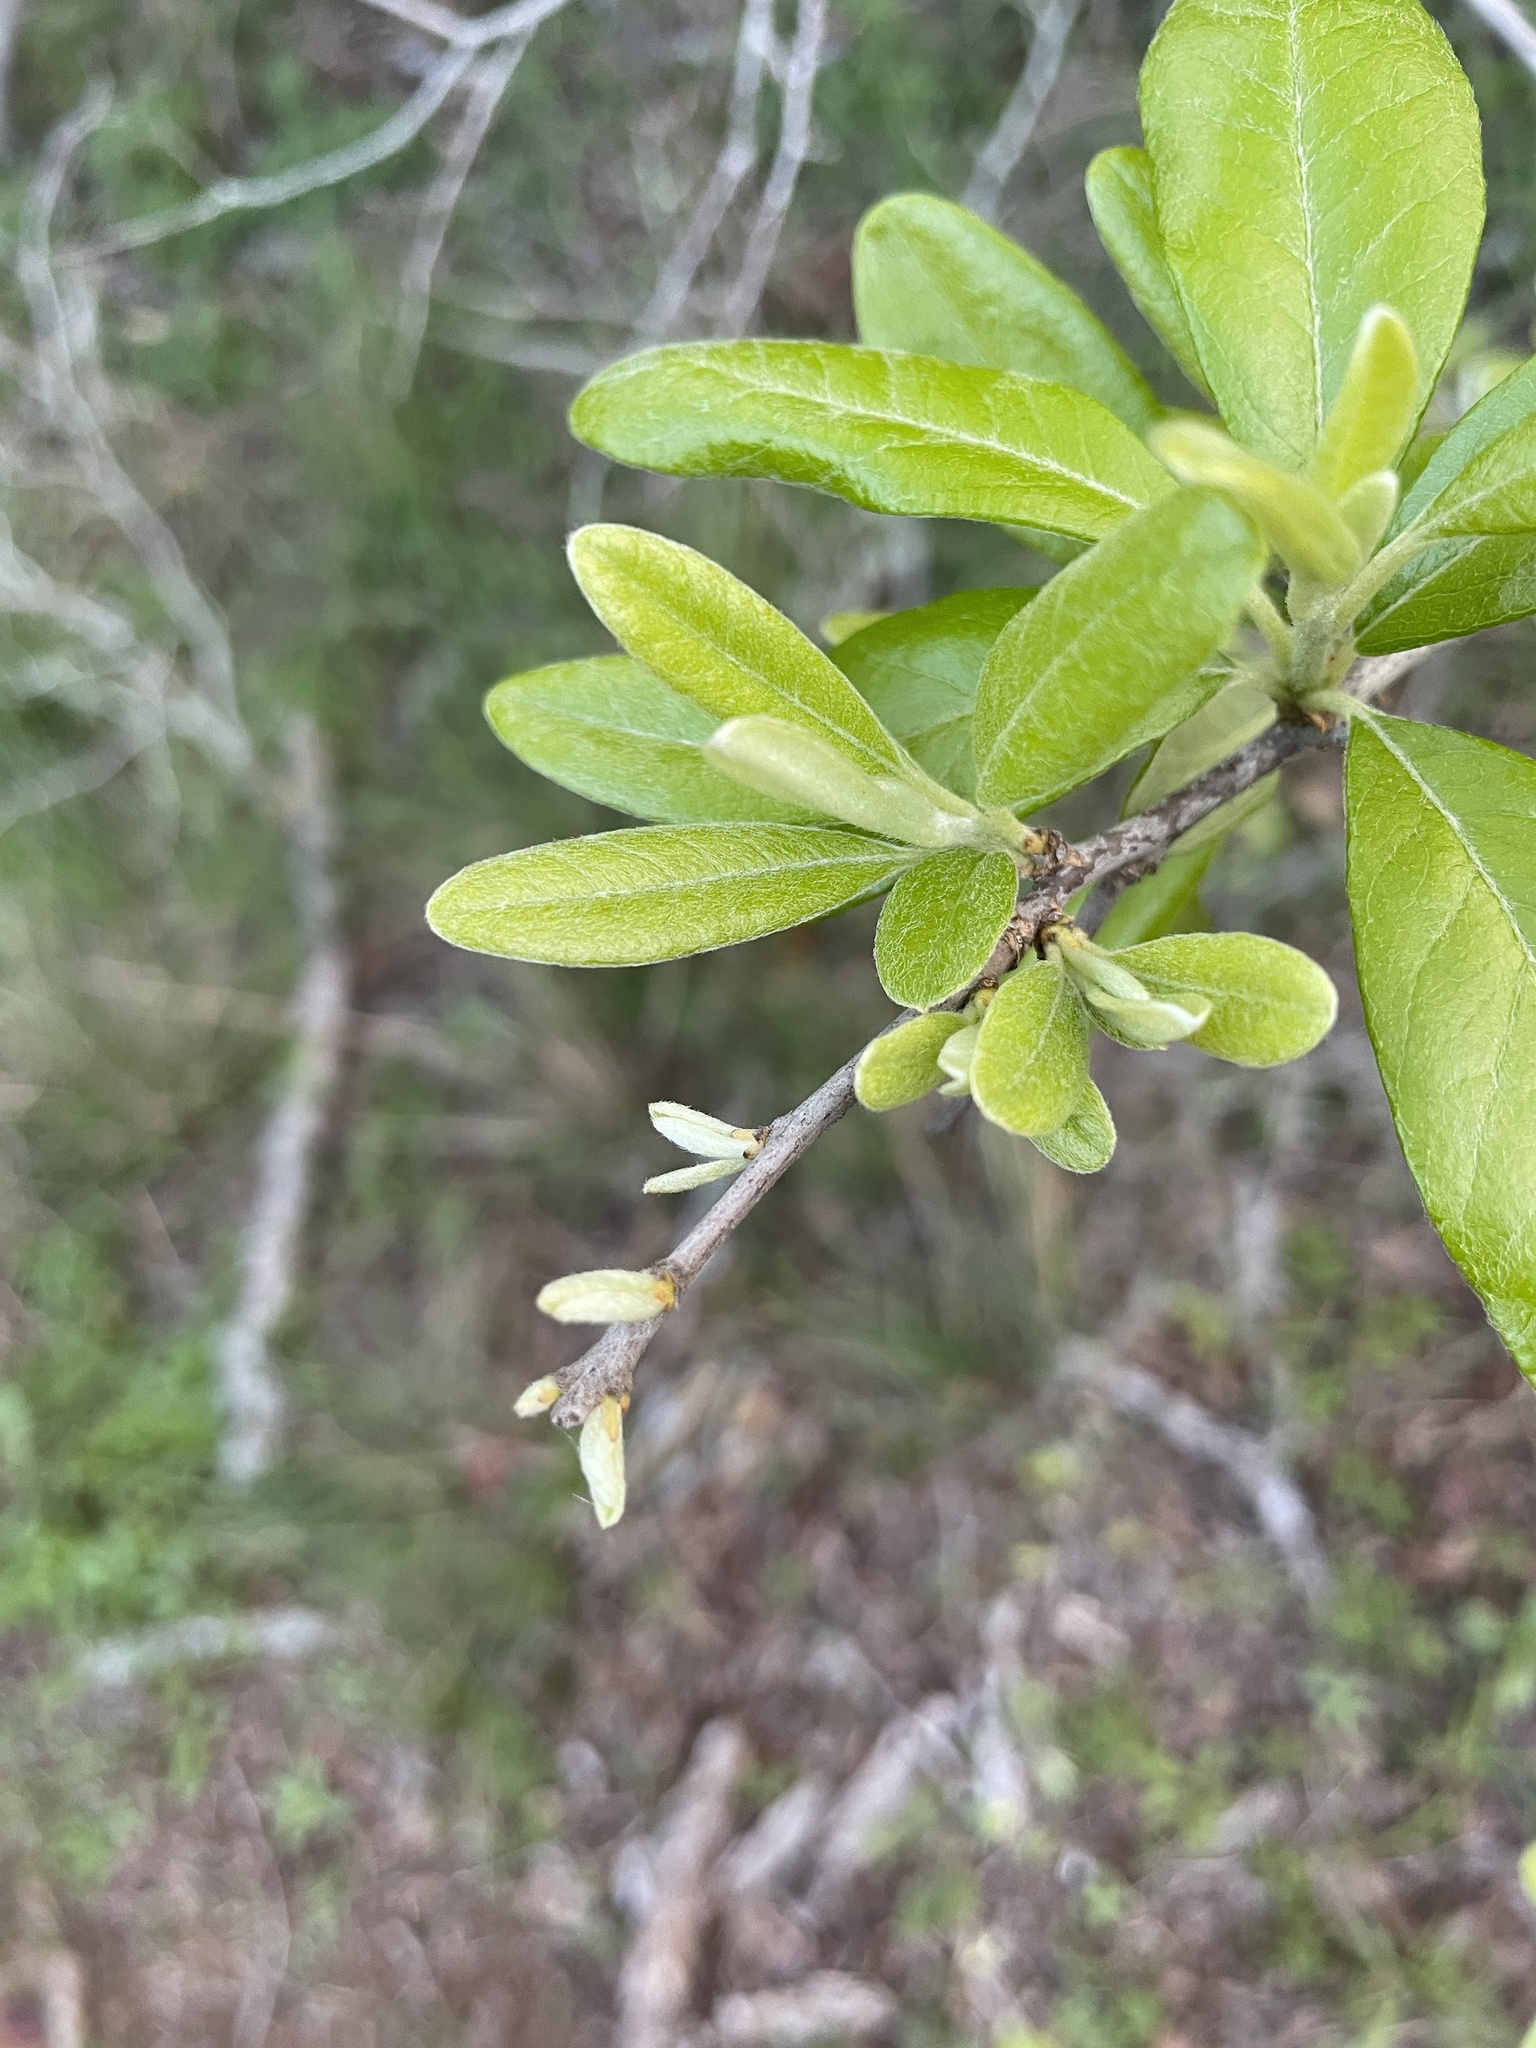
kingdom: Plantae
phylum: Tracheophyta
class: Magnoliopsida
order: Ericales
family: Sapotaceae
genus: Sideroxylon
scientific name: Sideroxylon lanuginosum
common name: Chittamwood
